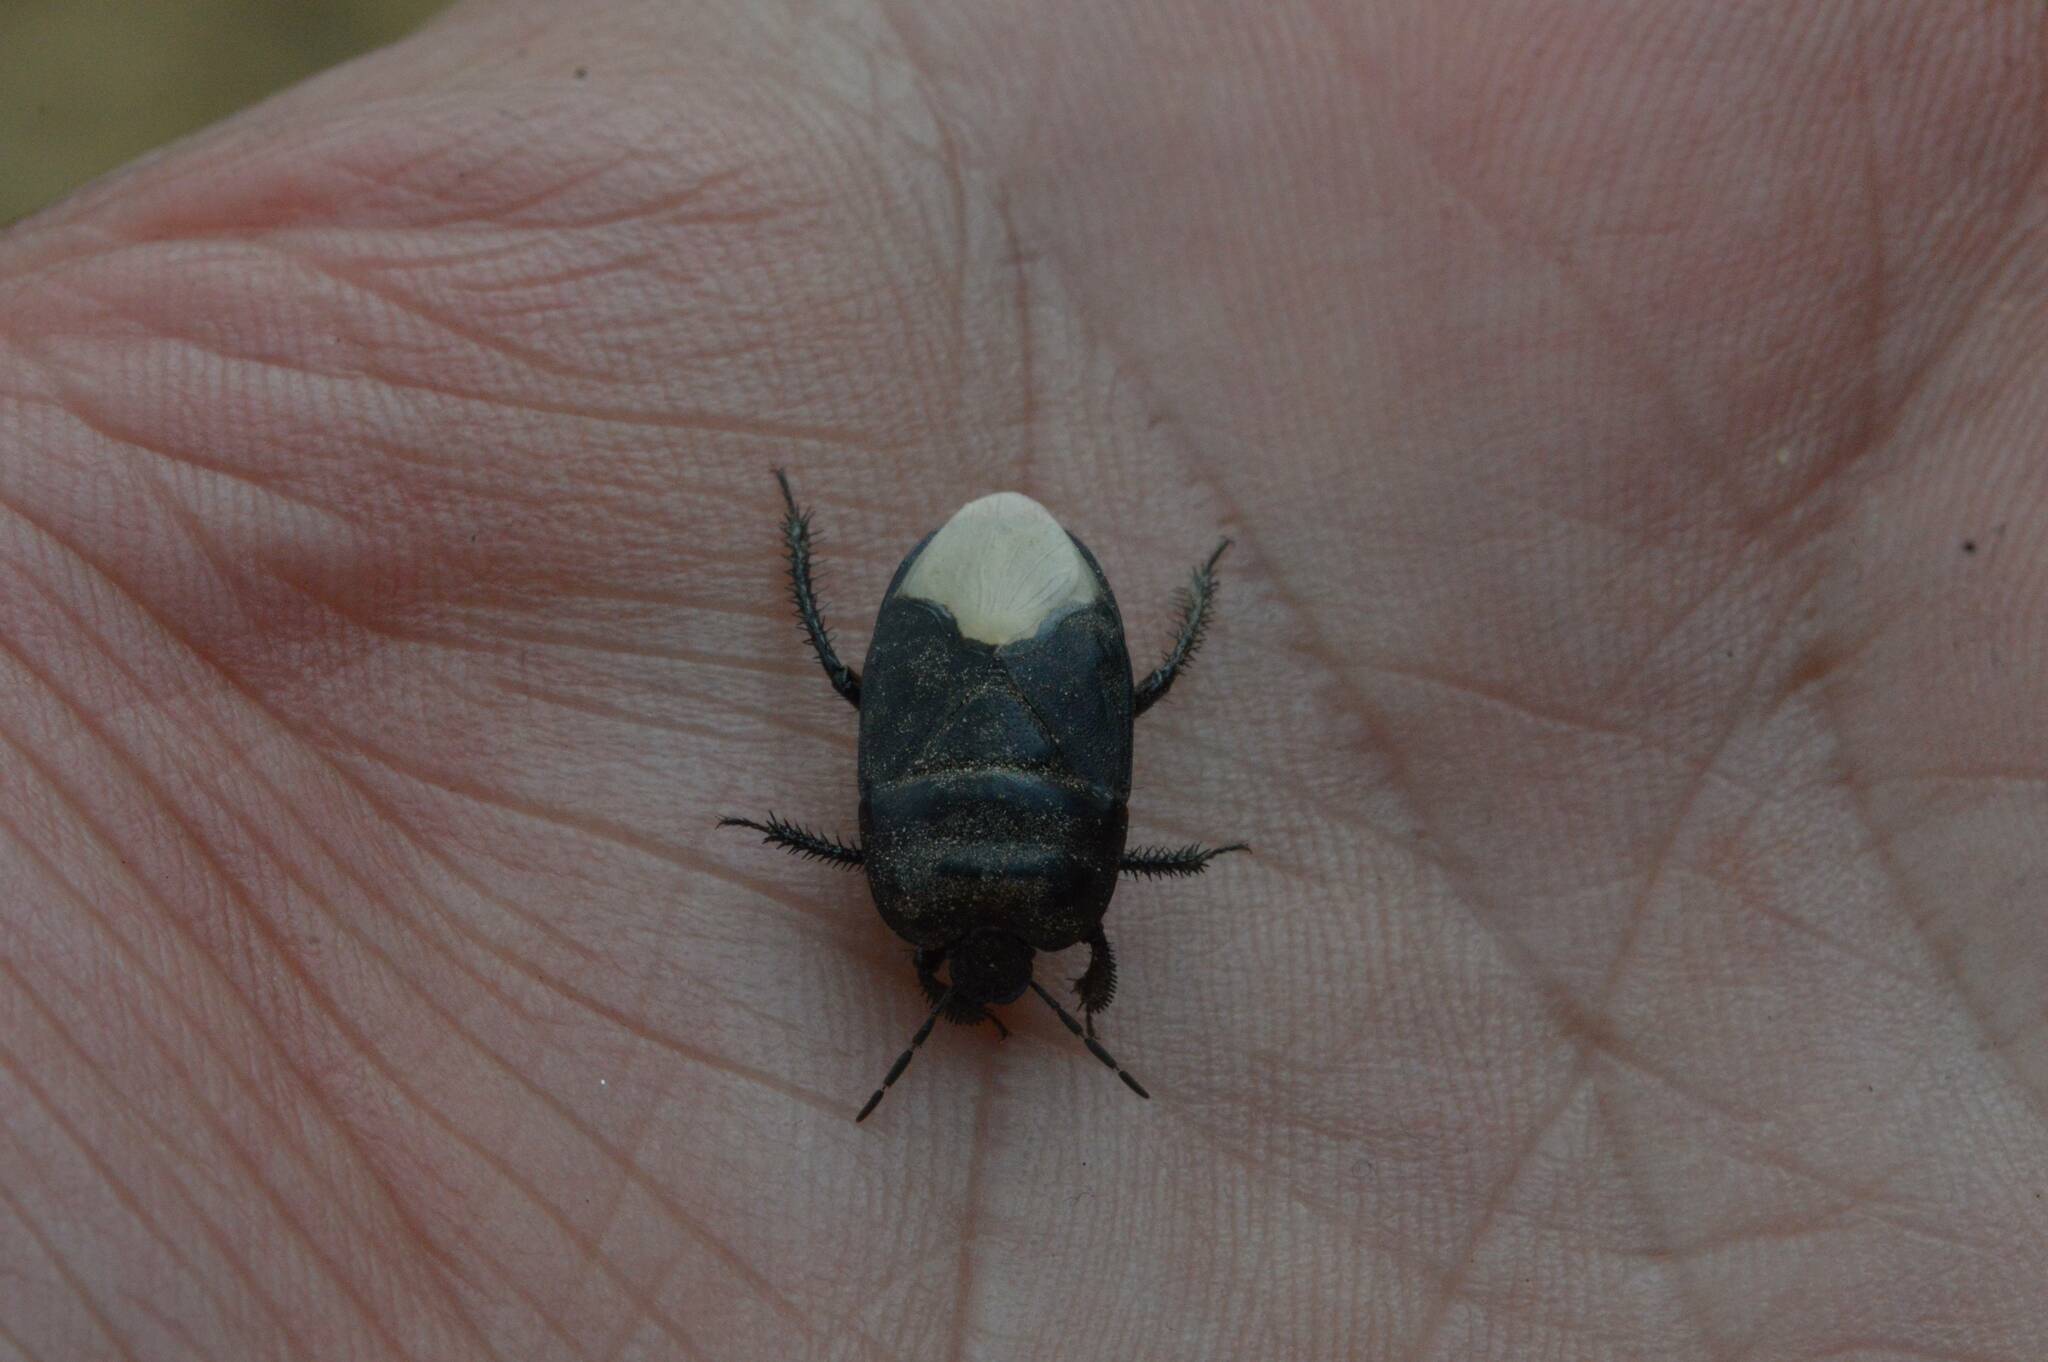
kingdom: Animalia
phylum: Arthropoda
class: Insecta
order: Hemiptera
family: Cydnidae
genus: Cydnus
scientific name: Cydnus aterrimus
